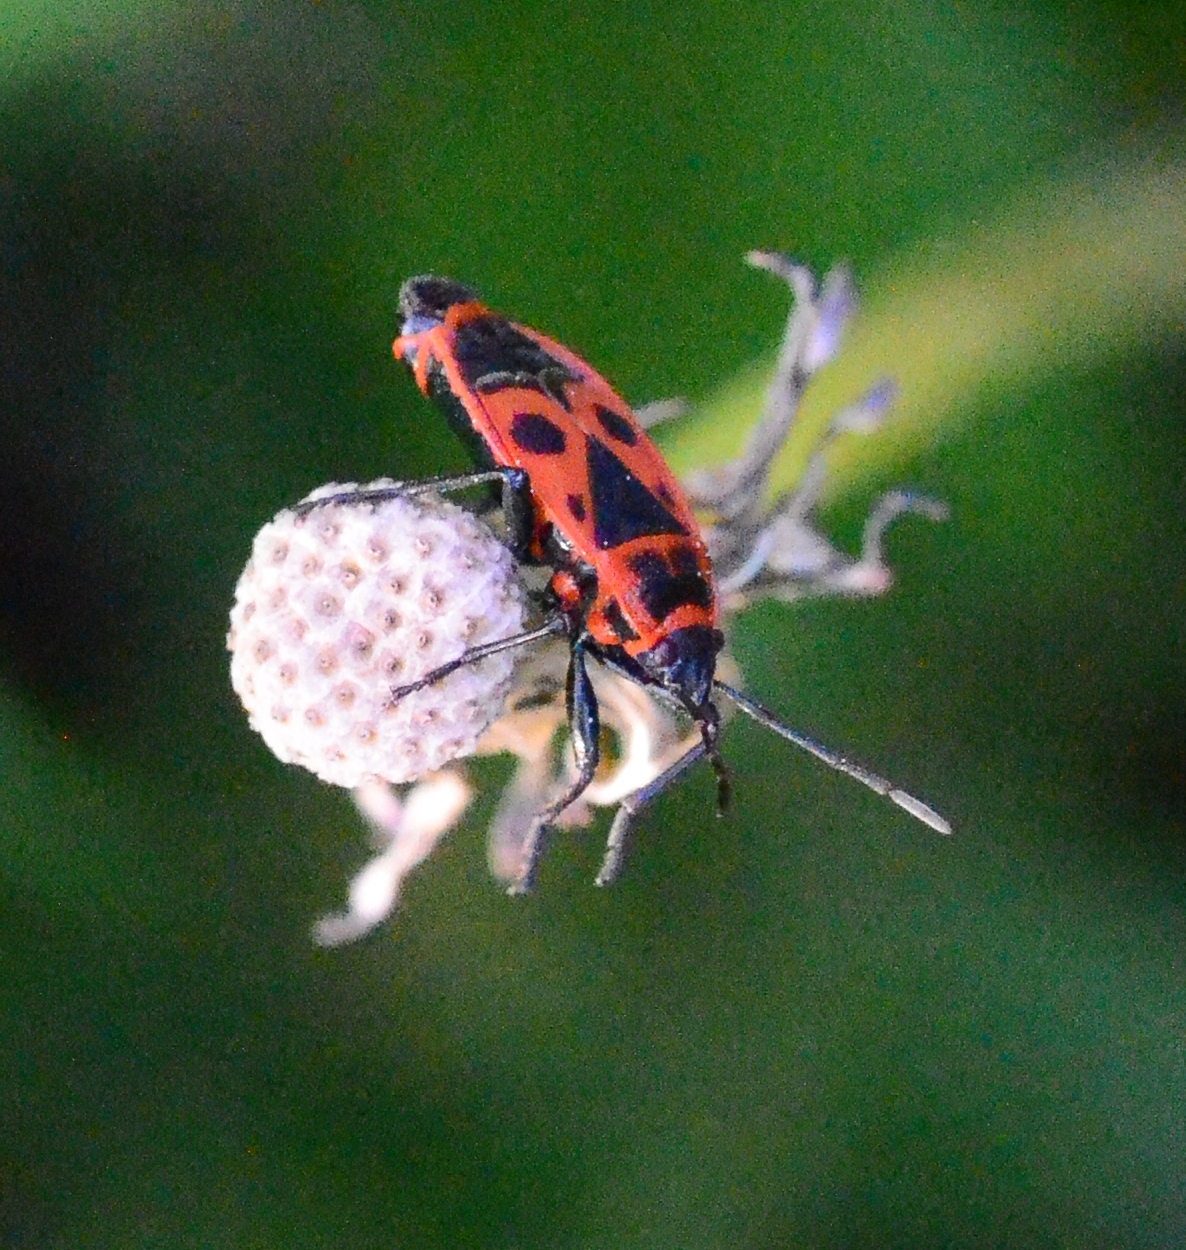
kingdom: Animalia
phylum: Arthropoda
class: Insecta
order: Hemiptera
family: Pyrrhocoridae
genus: Pyrrhocoris
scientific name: Pyrrhocoris apterus
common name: Firebug
